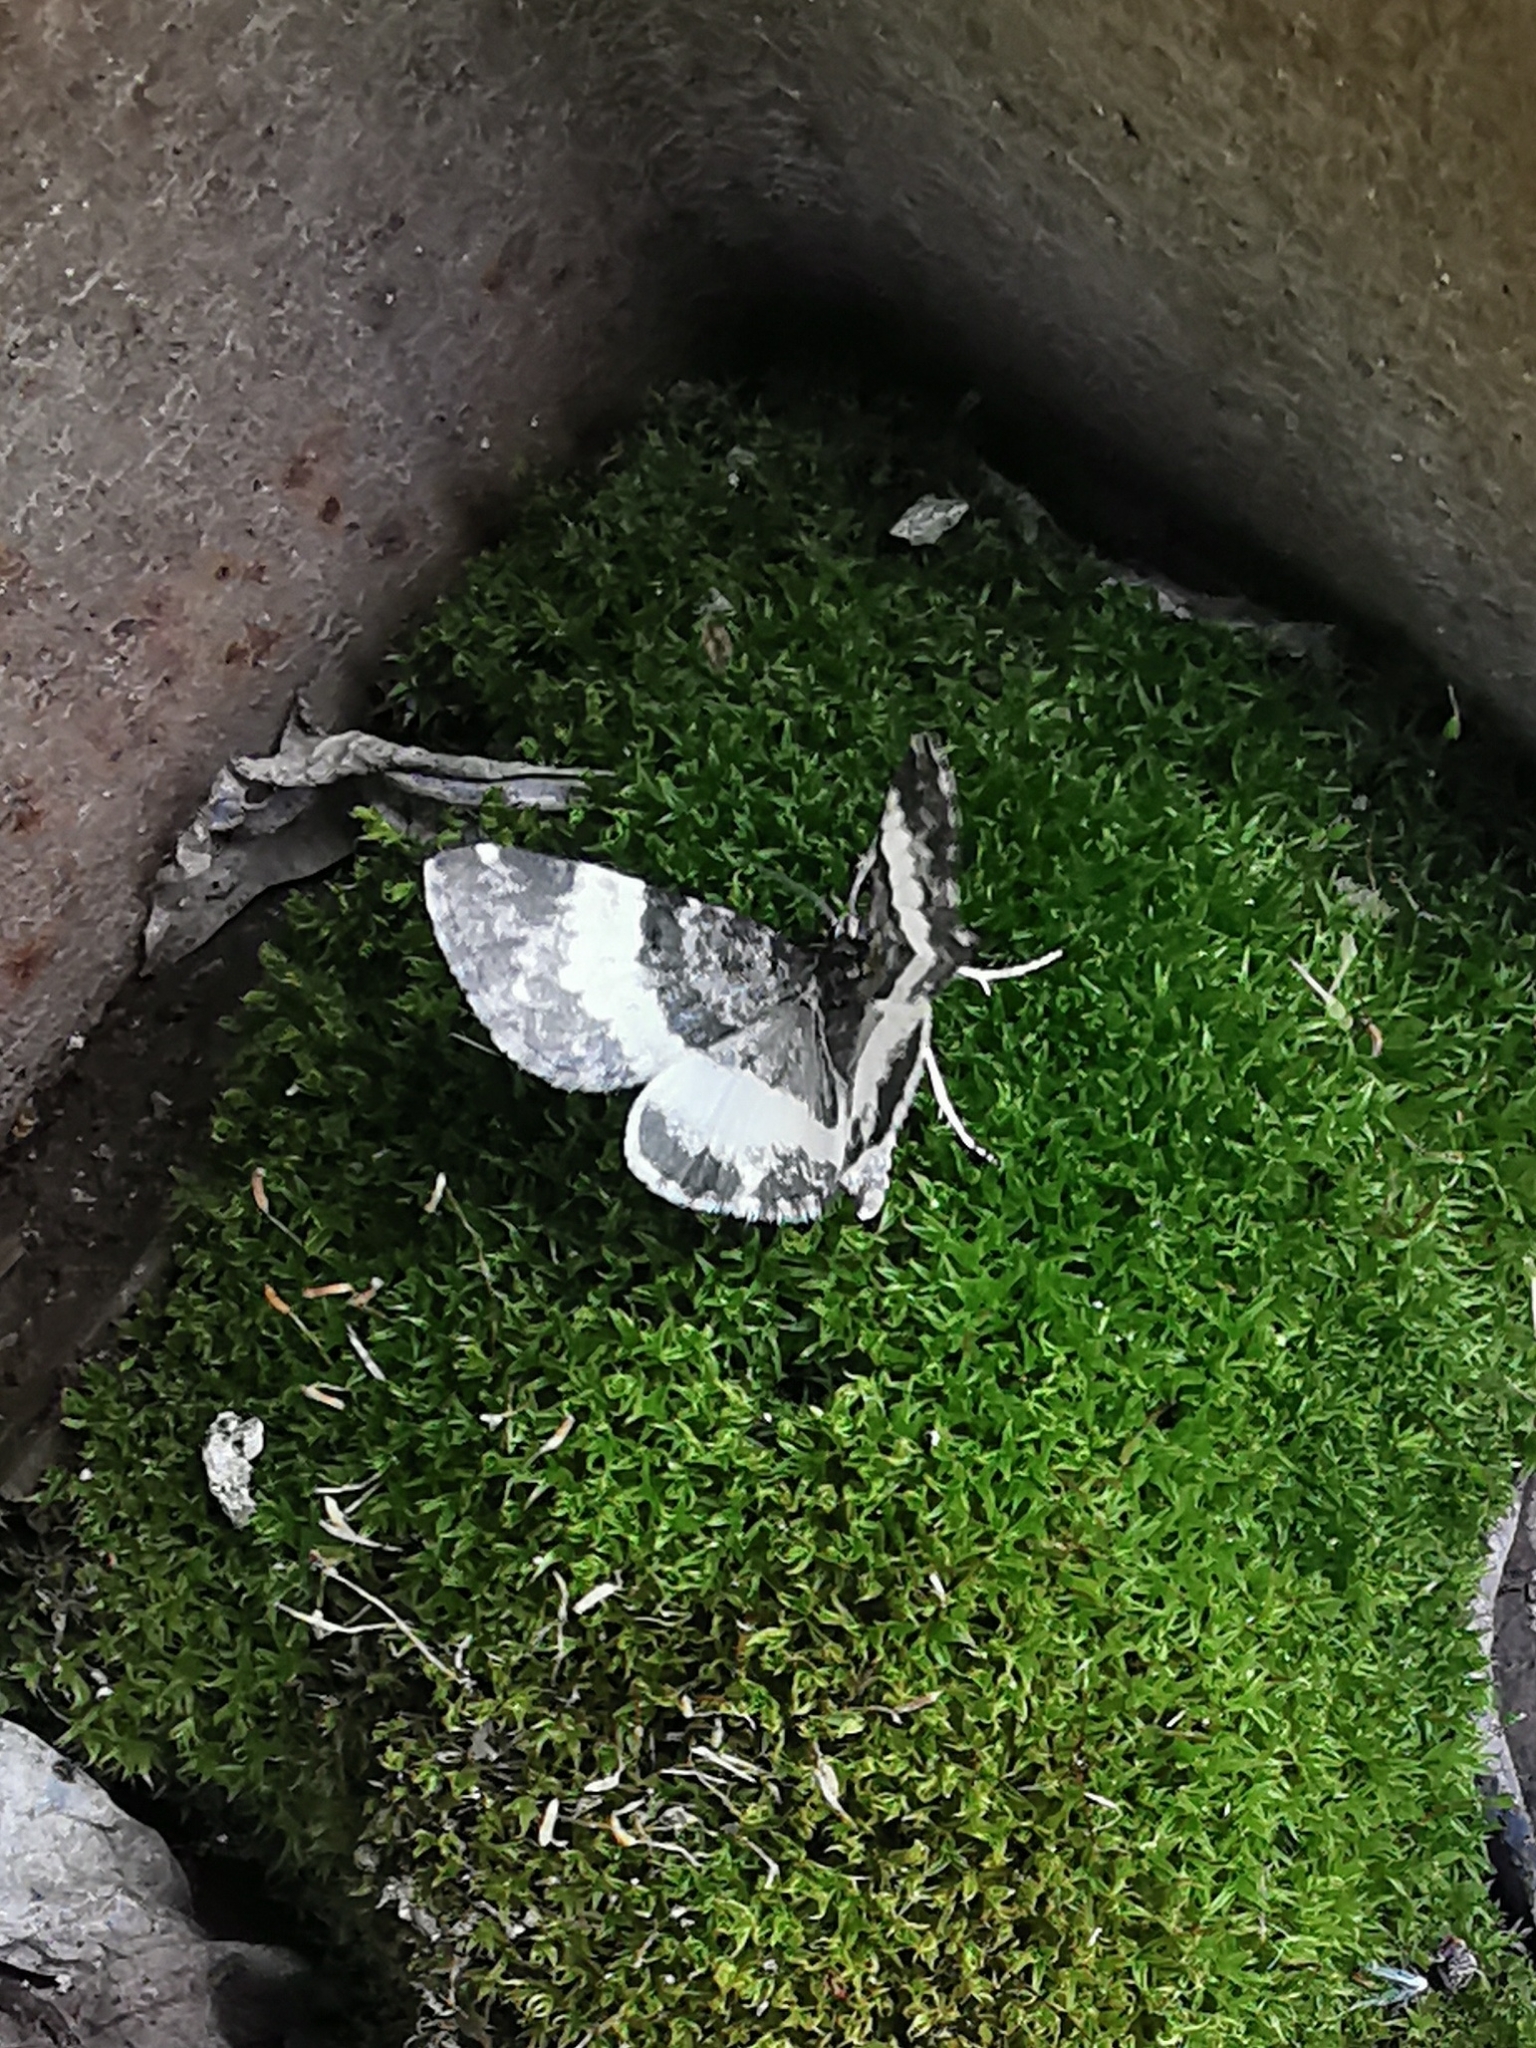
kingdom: Animalia
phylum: Arthropoda
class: Insecta
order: Lepidoptera
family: Geometridae
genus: Spargania
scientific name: Spargania luctuata
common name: White-banded carpet
